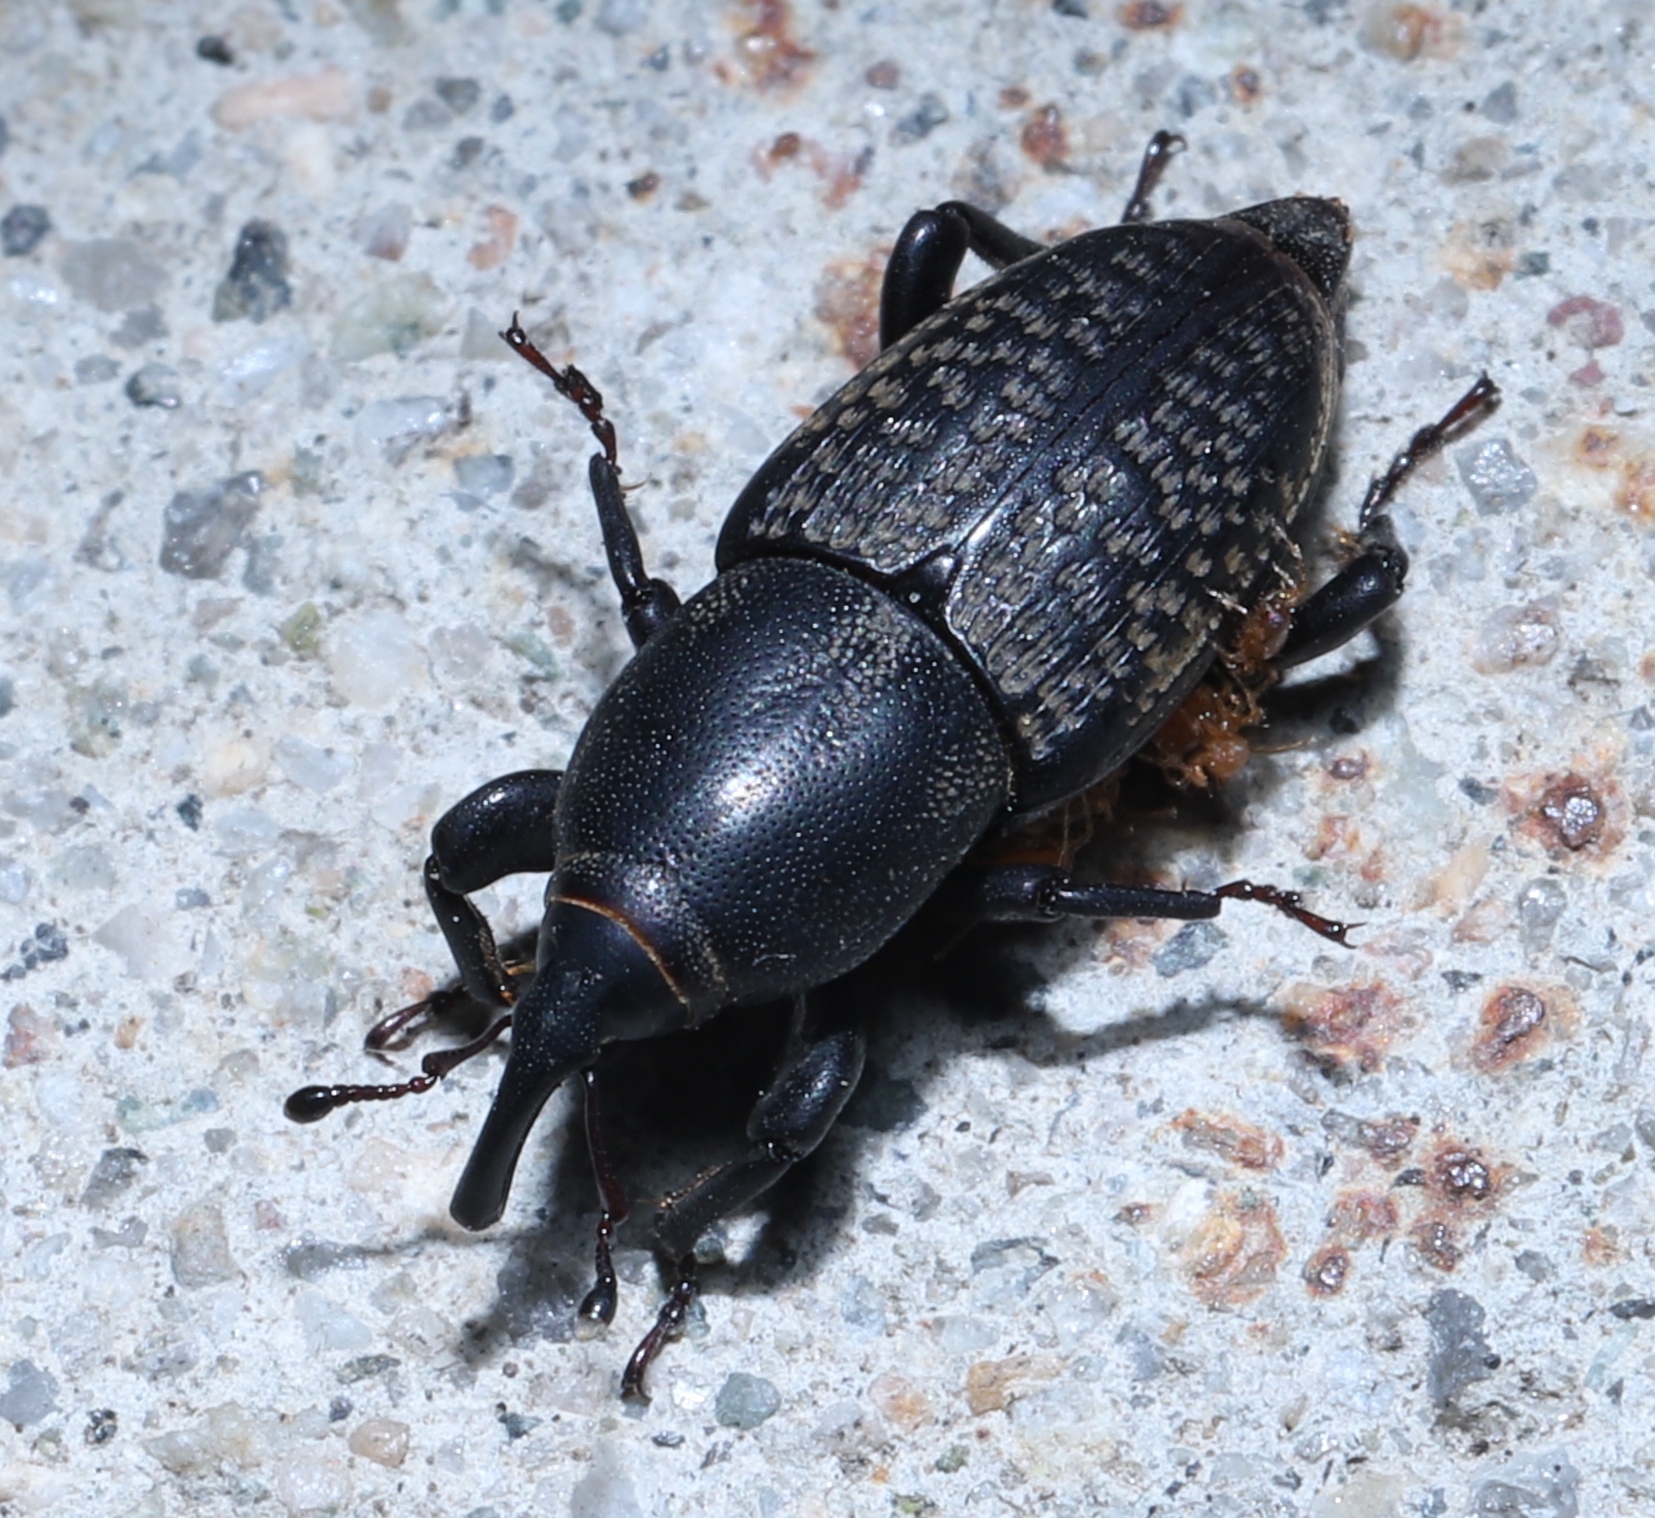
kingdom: Animalia
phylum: Arthropoda
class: Insecta
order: Coleoptera
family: Dryophthoridae
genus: Sphenophorus
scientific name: Sphenophorus cicatristriatus
